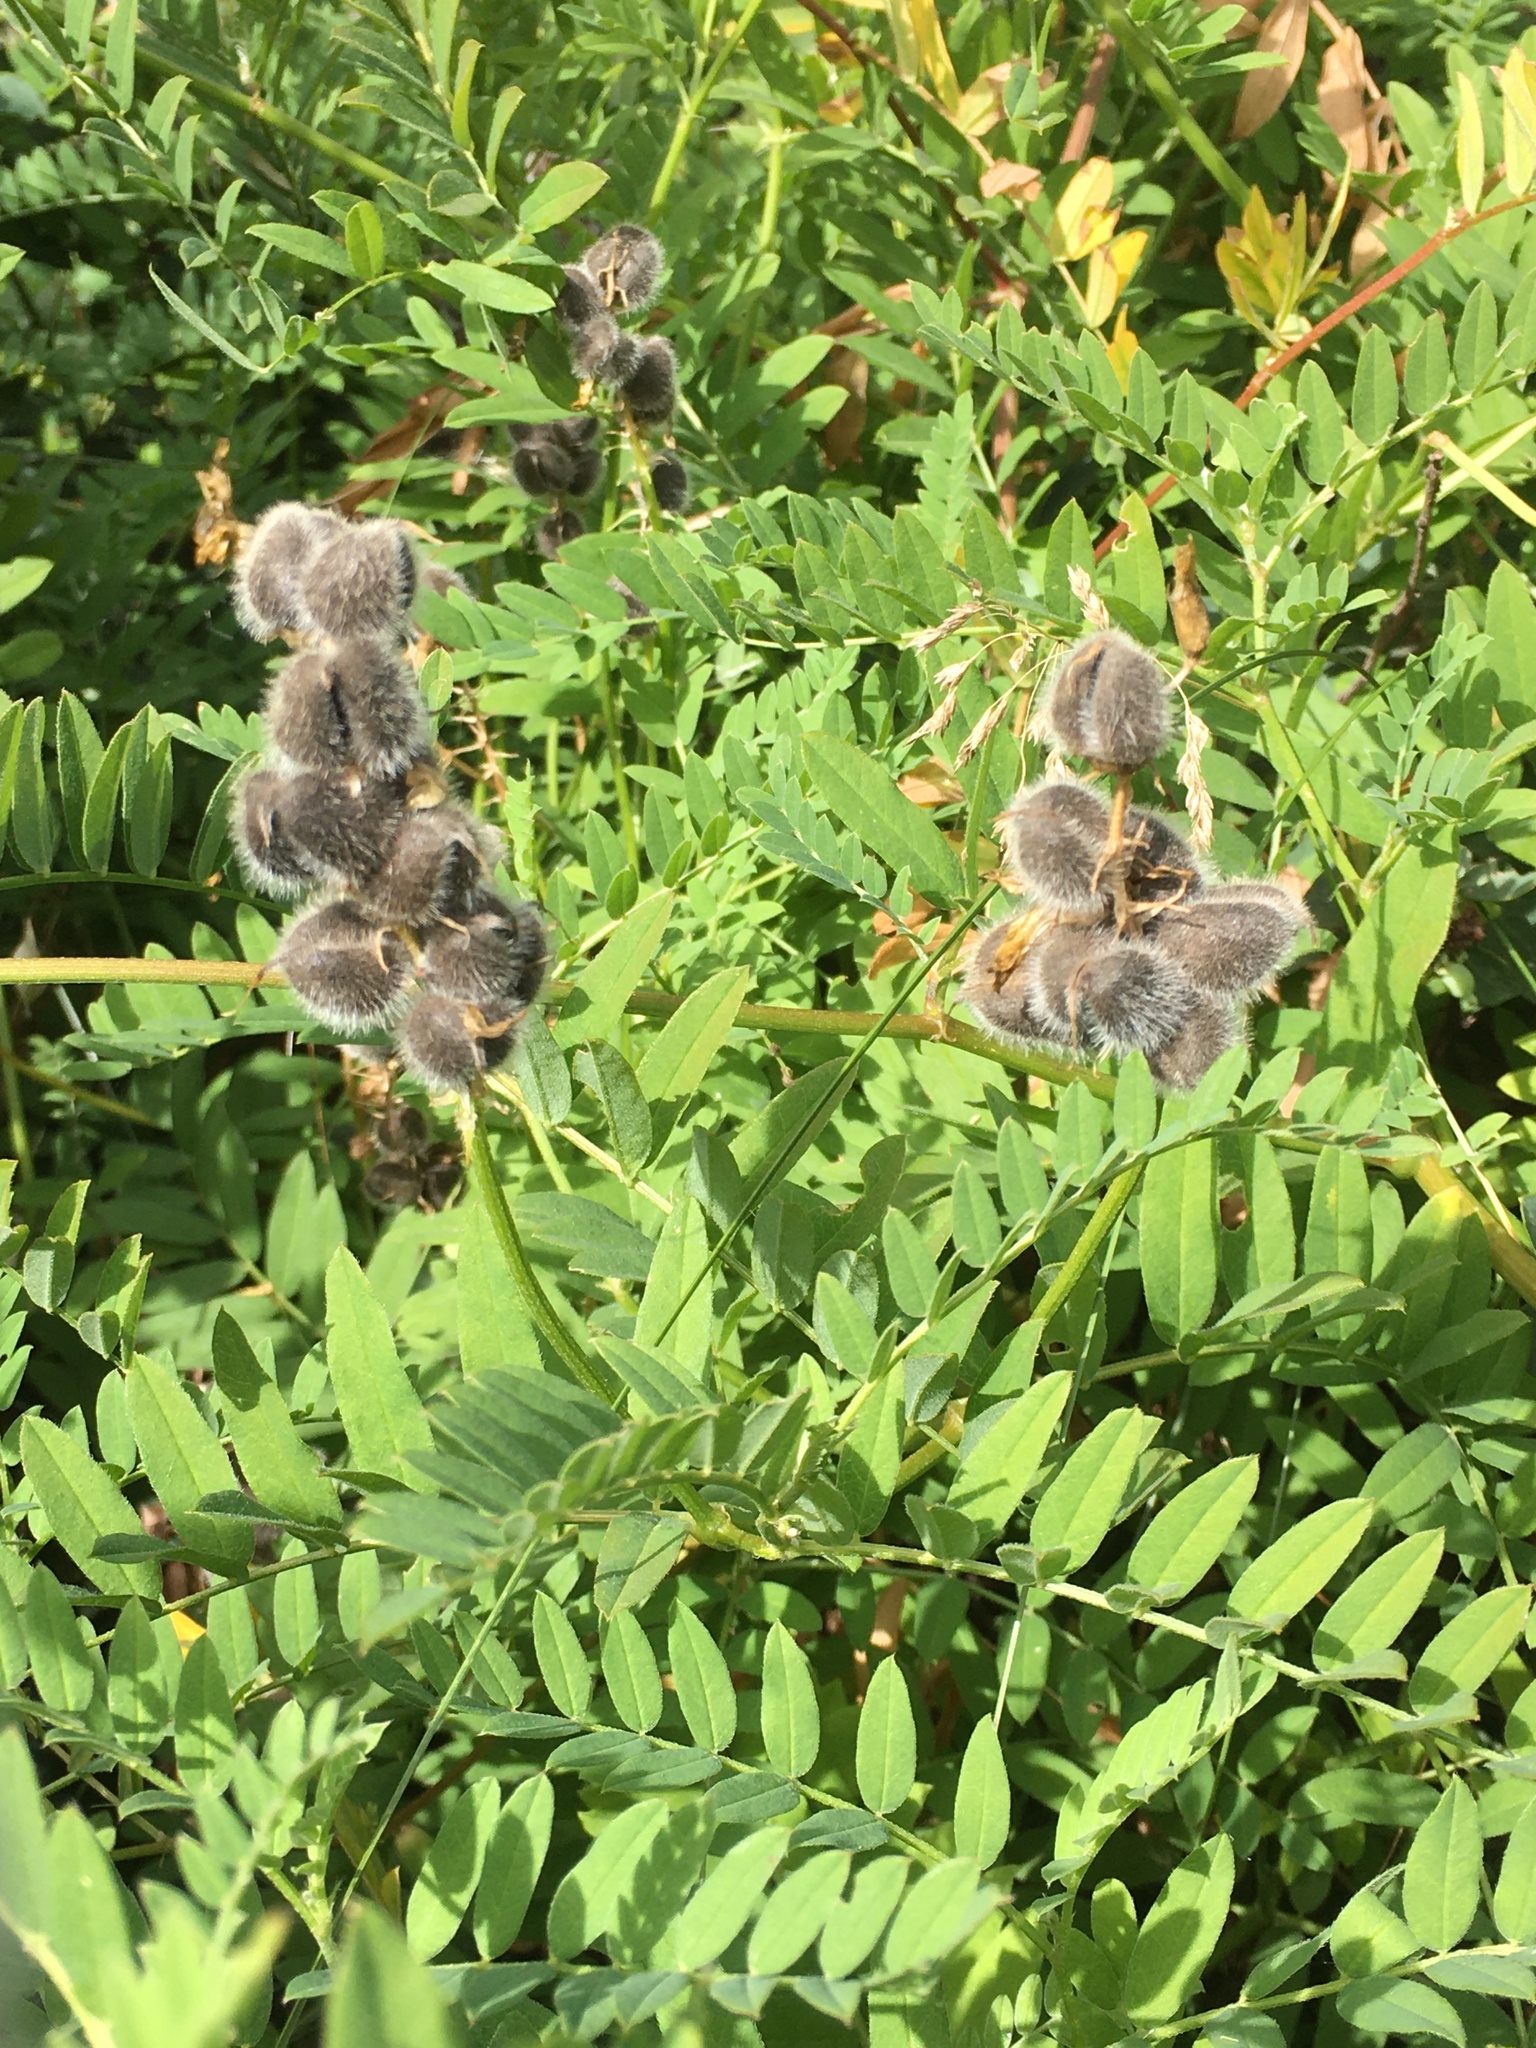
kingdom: Plantae
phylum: Tracheophyta
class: Magnoliopsida
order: Fabales
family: Fabaceae
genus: Astragalus
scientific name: Astragalus cicer
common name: Chick-pea milk-vetch
